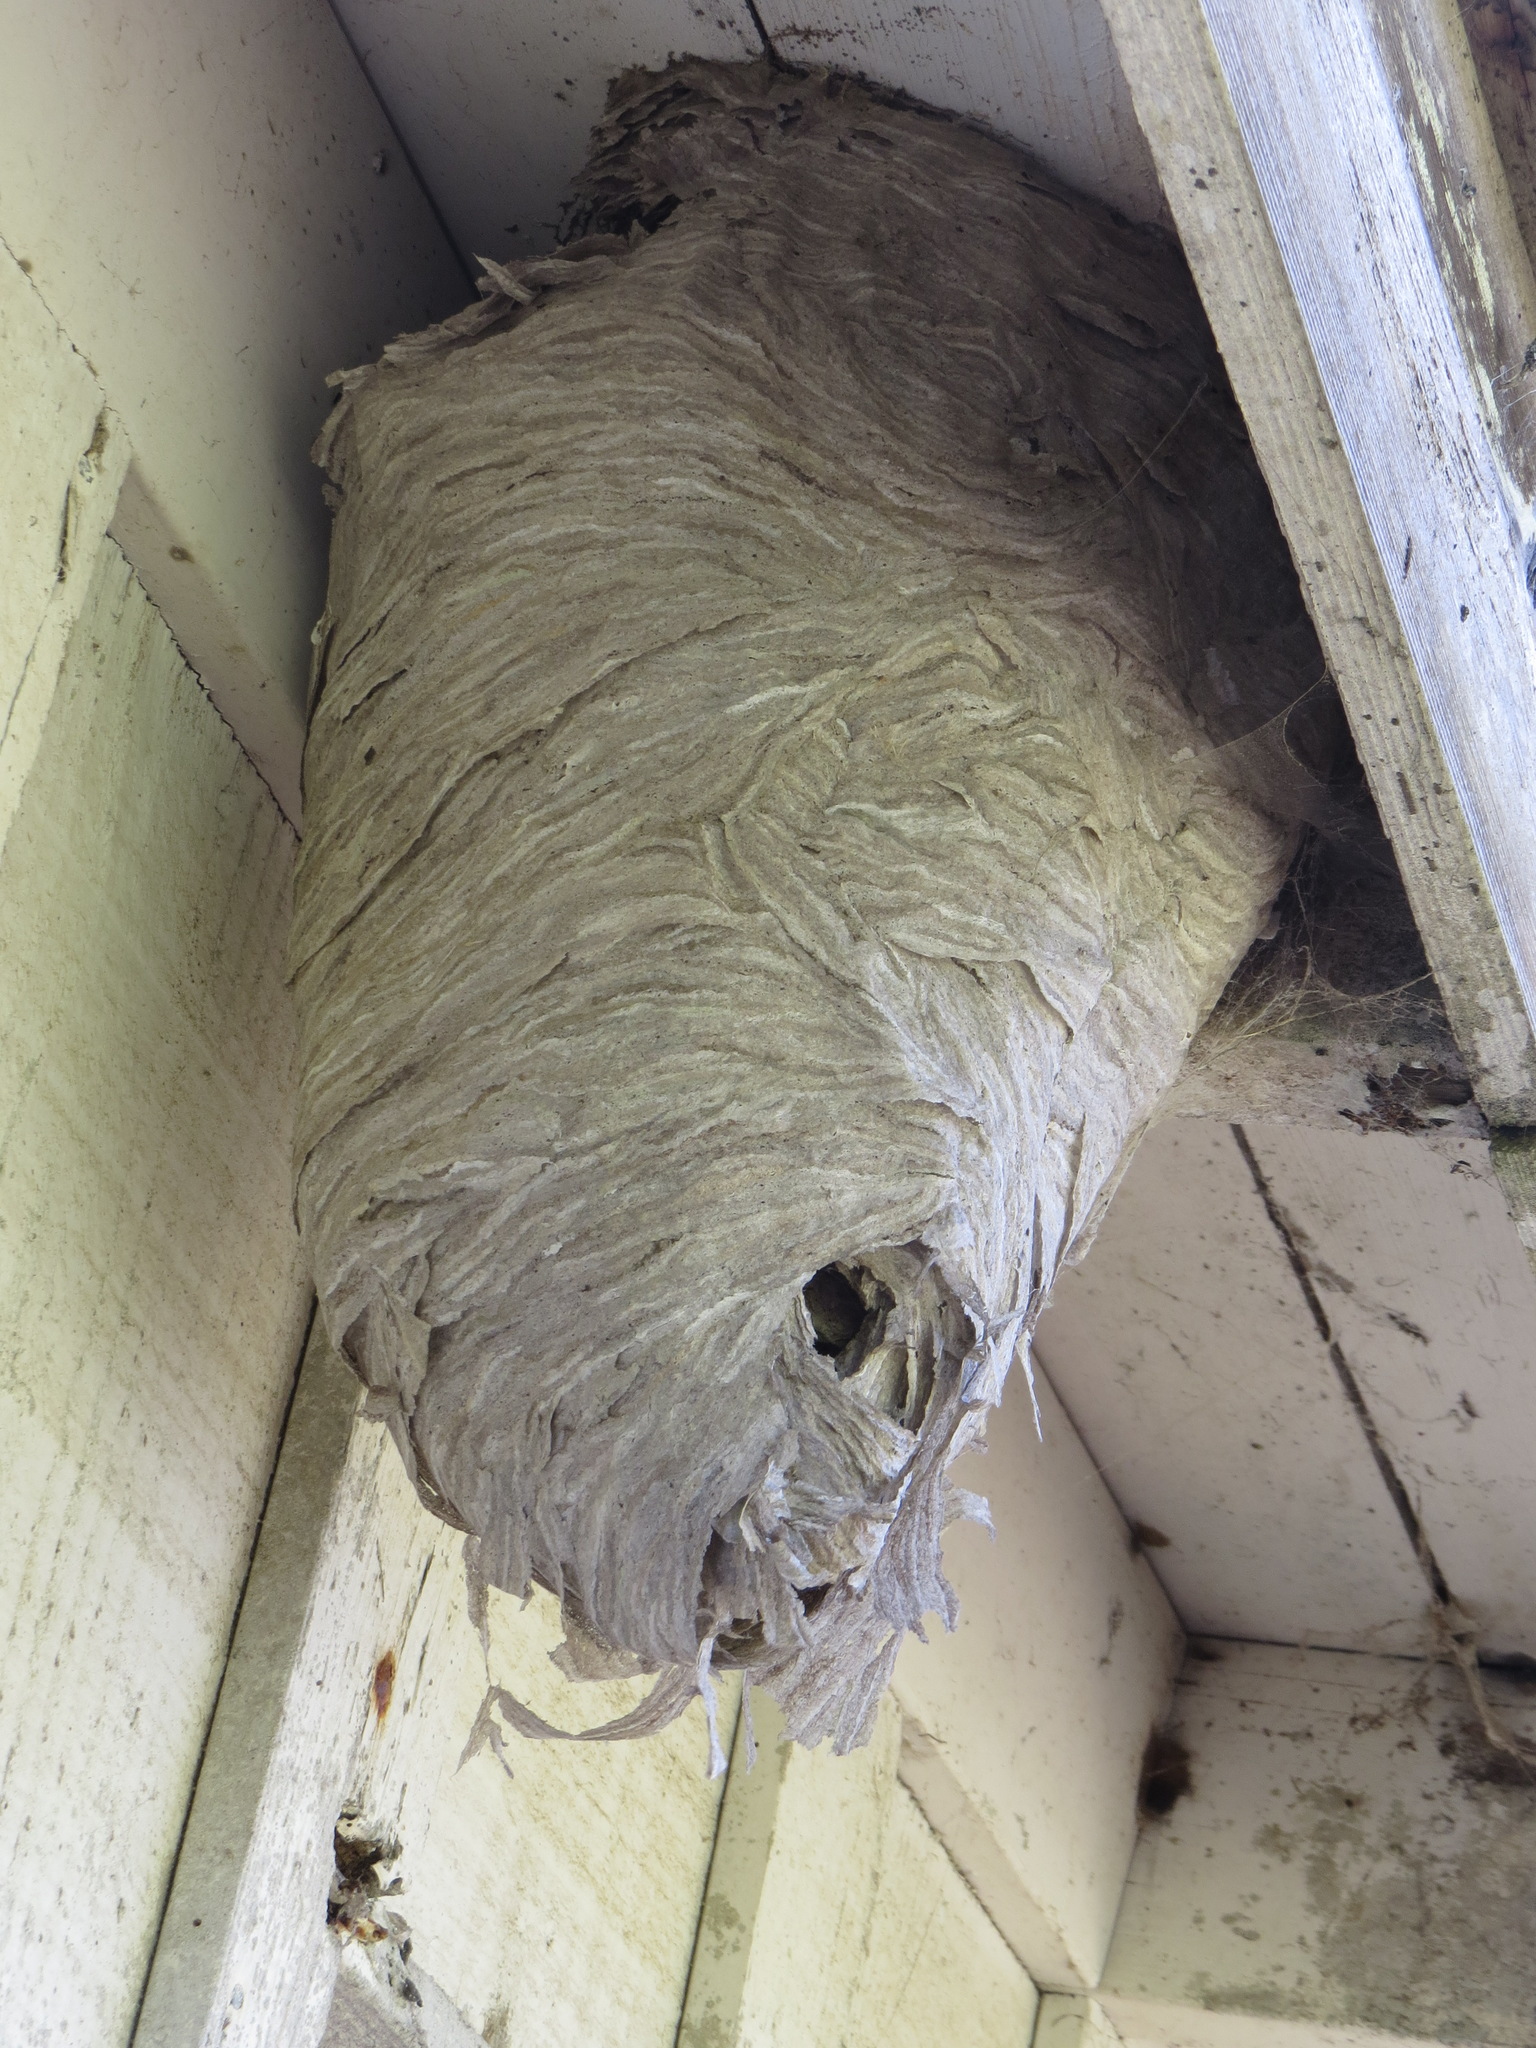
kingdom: Animalia
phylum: Arthropoda
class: Insecta
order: Hymenoptera
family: Vespidae
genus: Dolichovespula
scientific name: Dolichovespula
